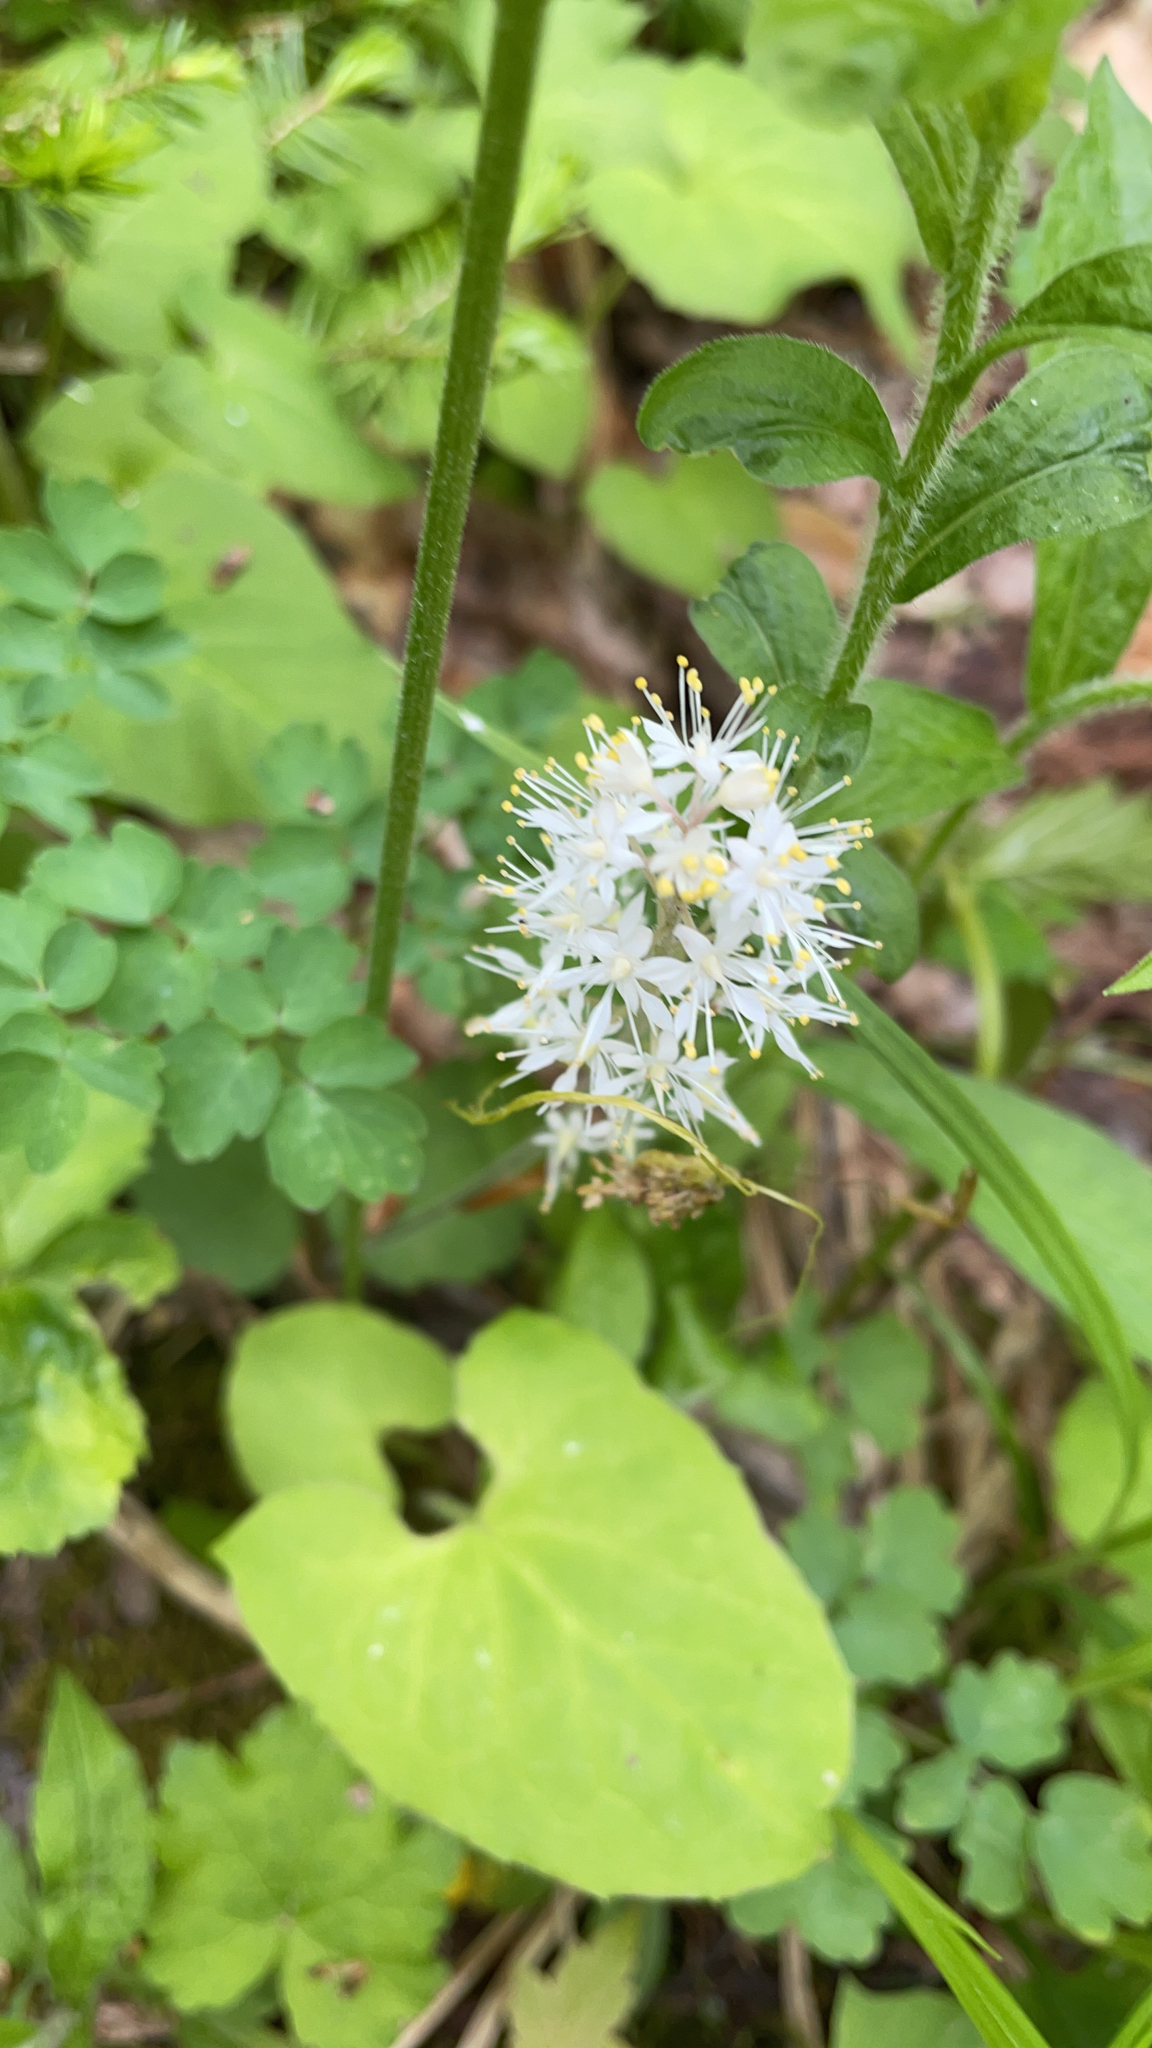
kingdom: Plantae
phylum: Tracheophyta
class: Magnoliopsida
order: Saxifragales
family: Saxifragaceae
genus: Tiarella
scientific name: Tiarella stolonifera
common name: Stoloniferous foamflower
